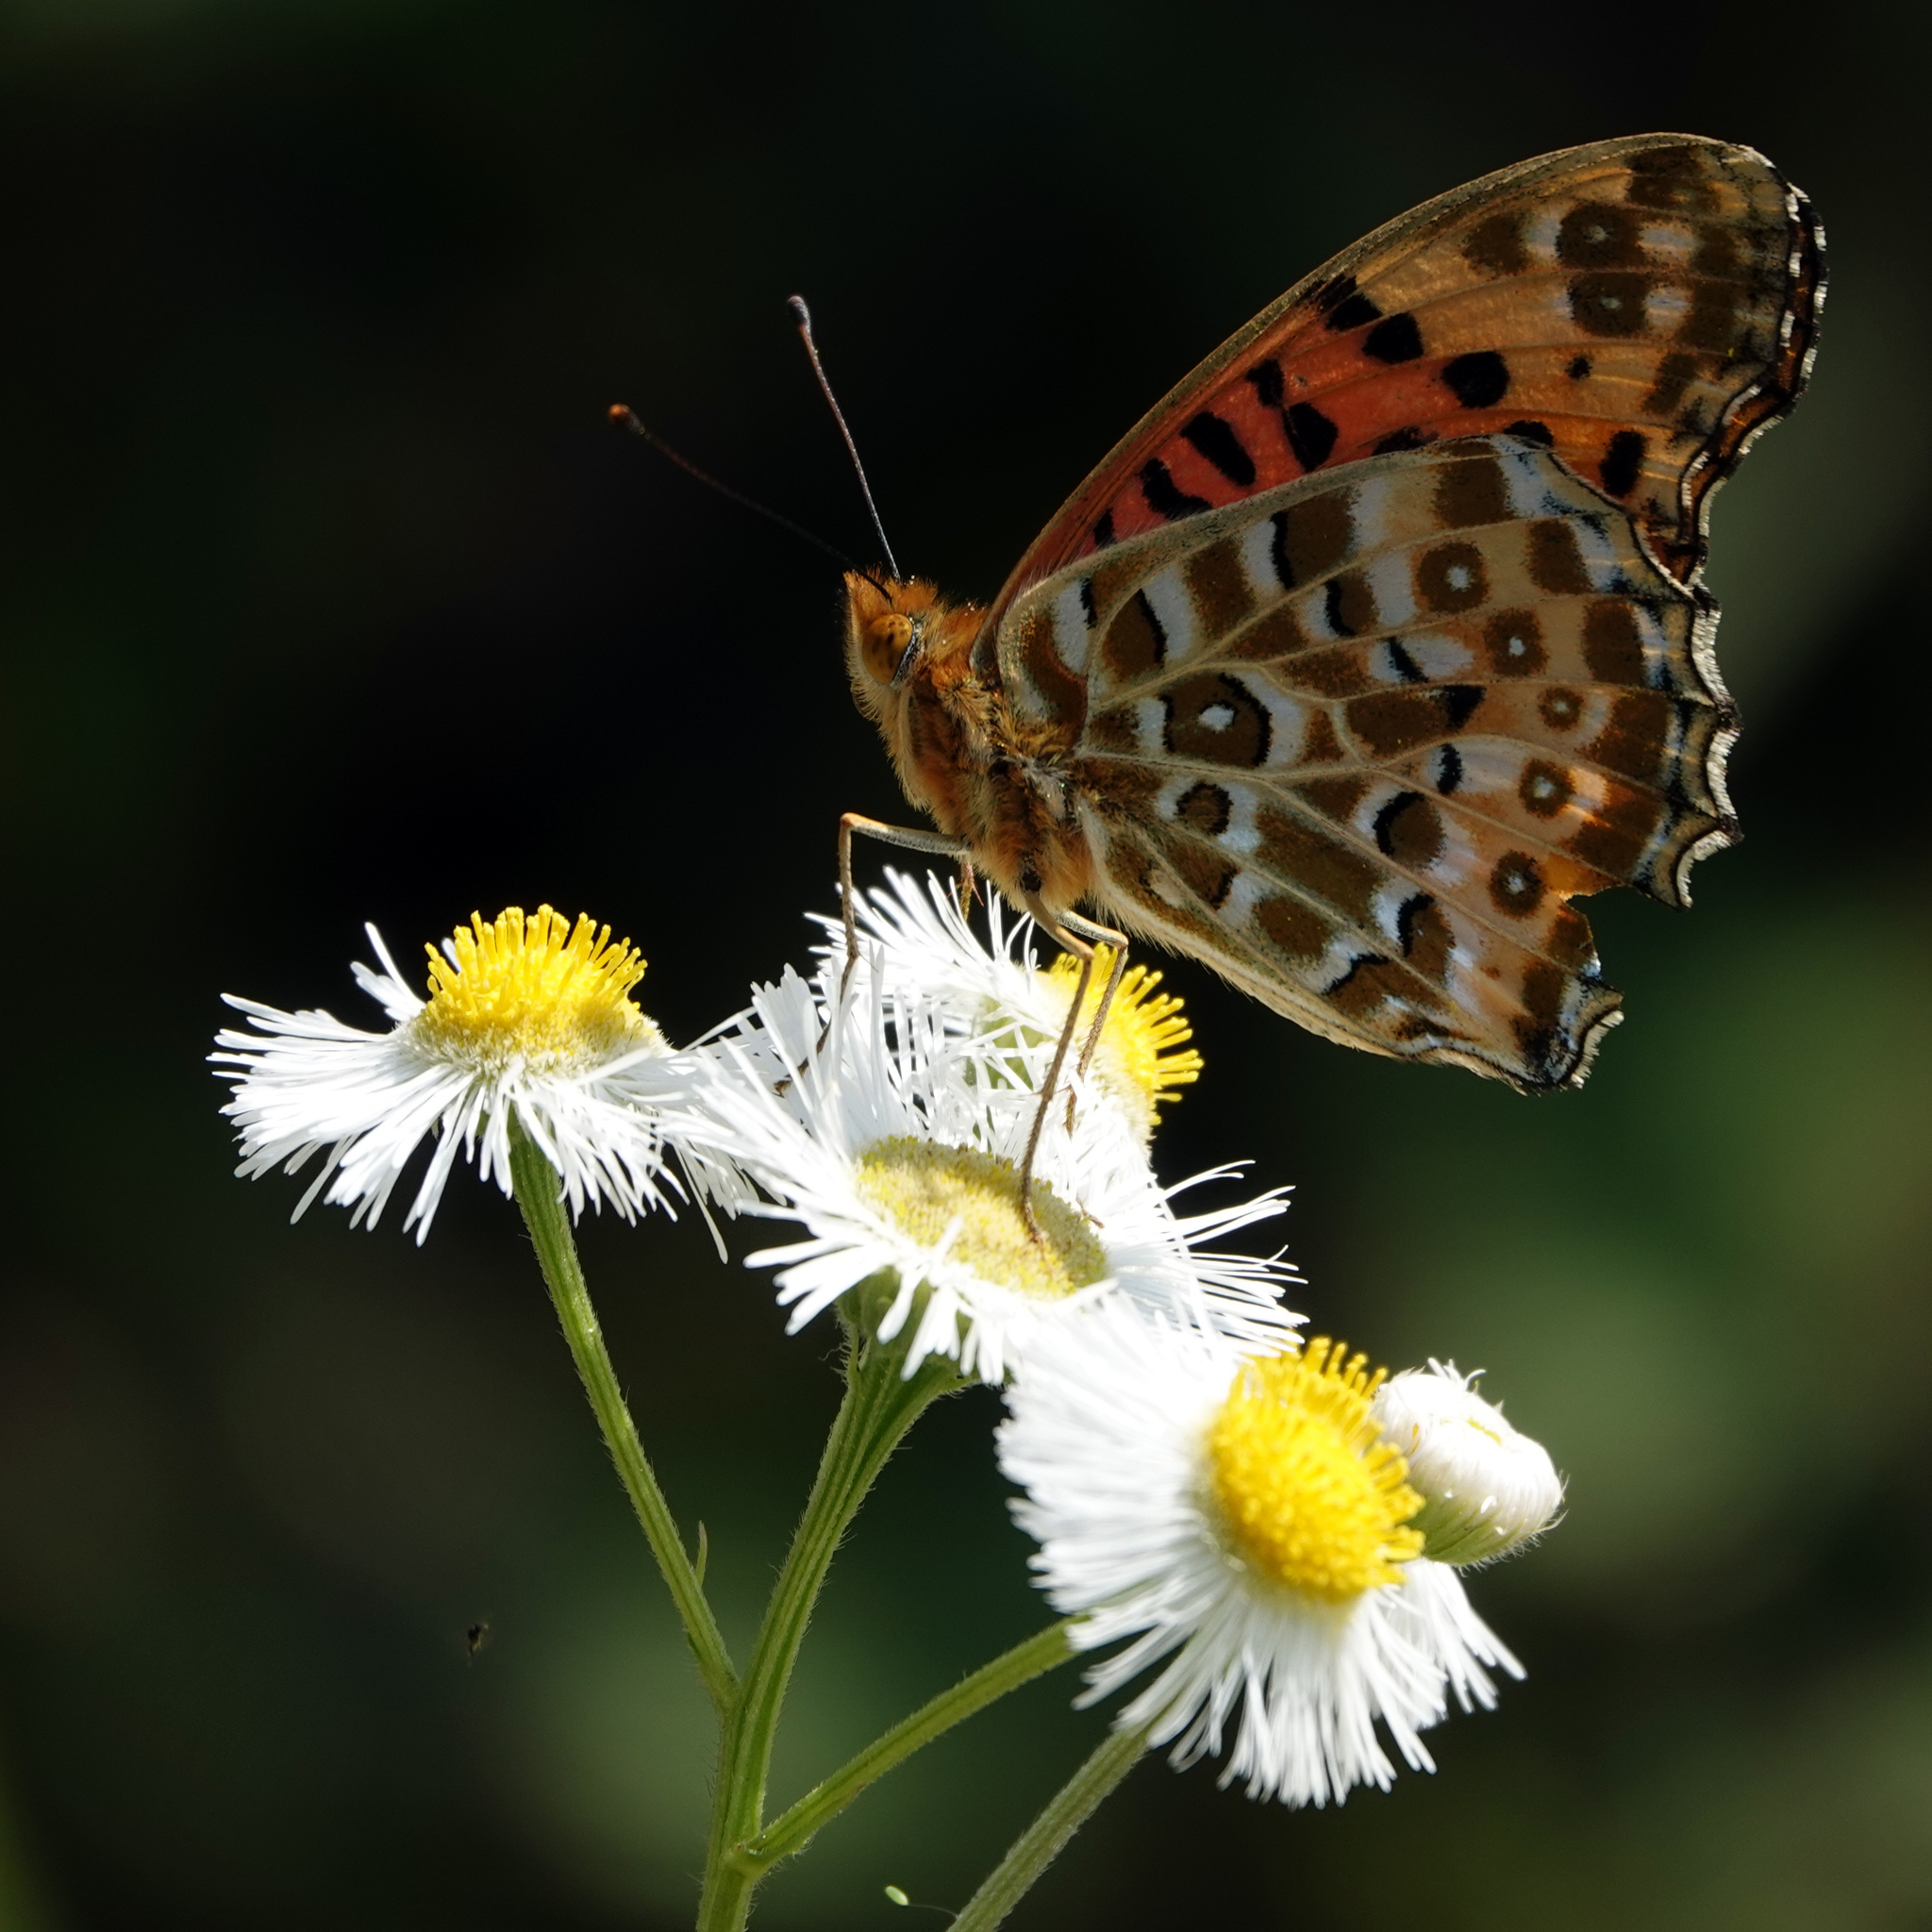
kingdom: Animalia
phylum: Arthropoda
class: Insecta
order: Lepidoptera
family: Nymphalidae
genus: Argynnis
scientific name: Argynnis hyperbius
